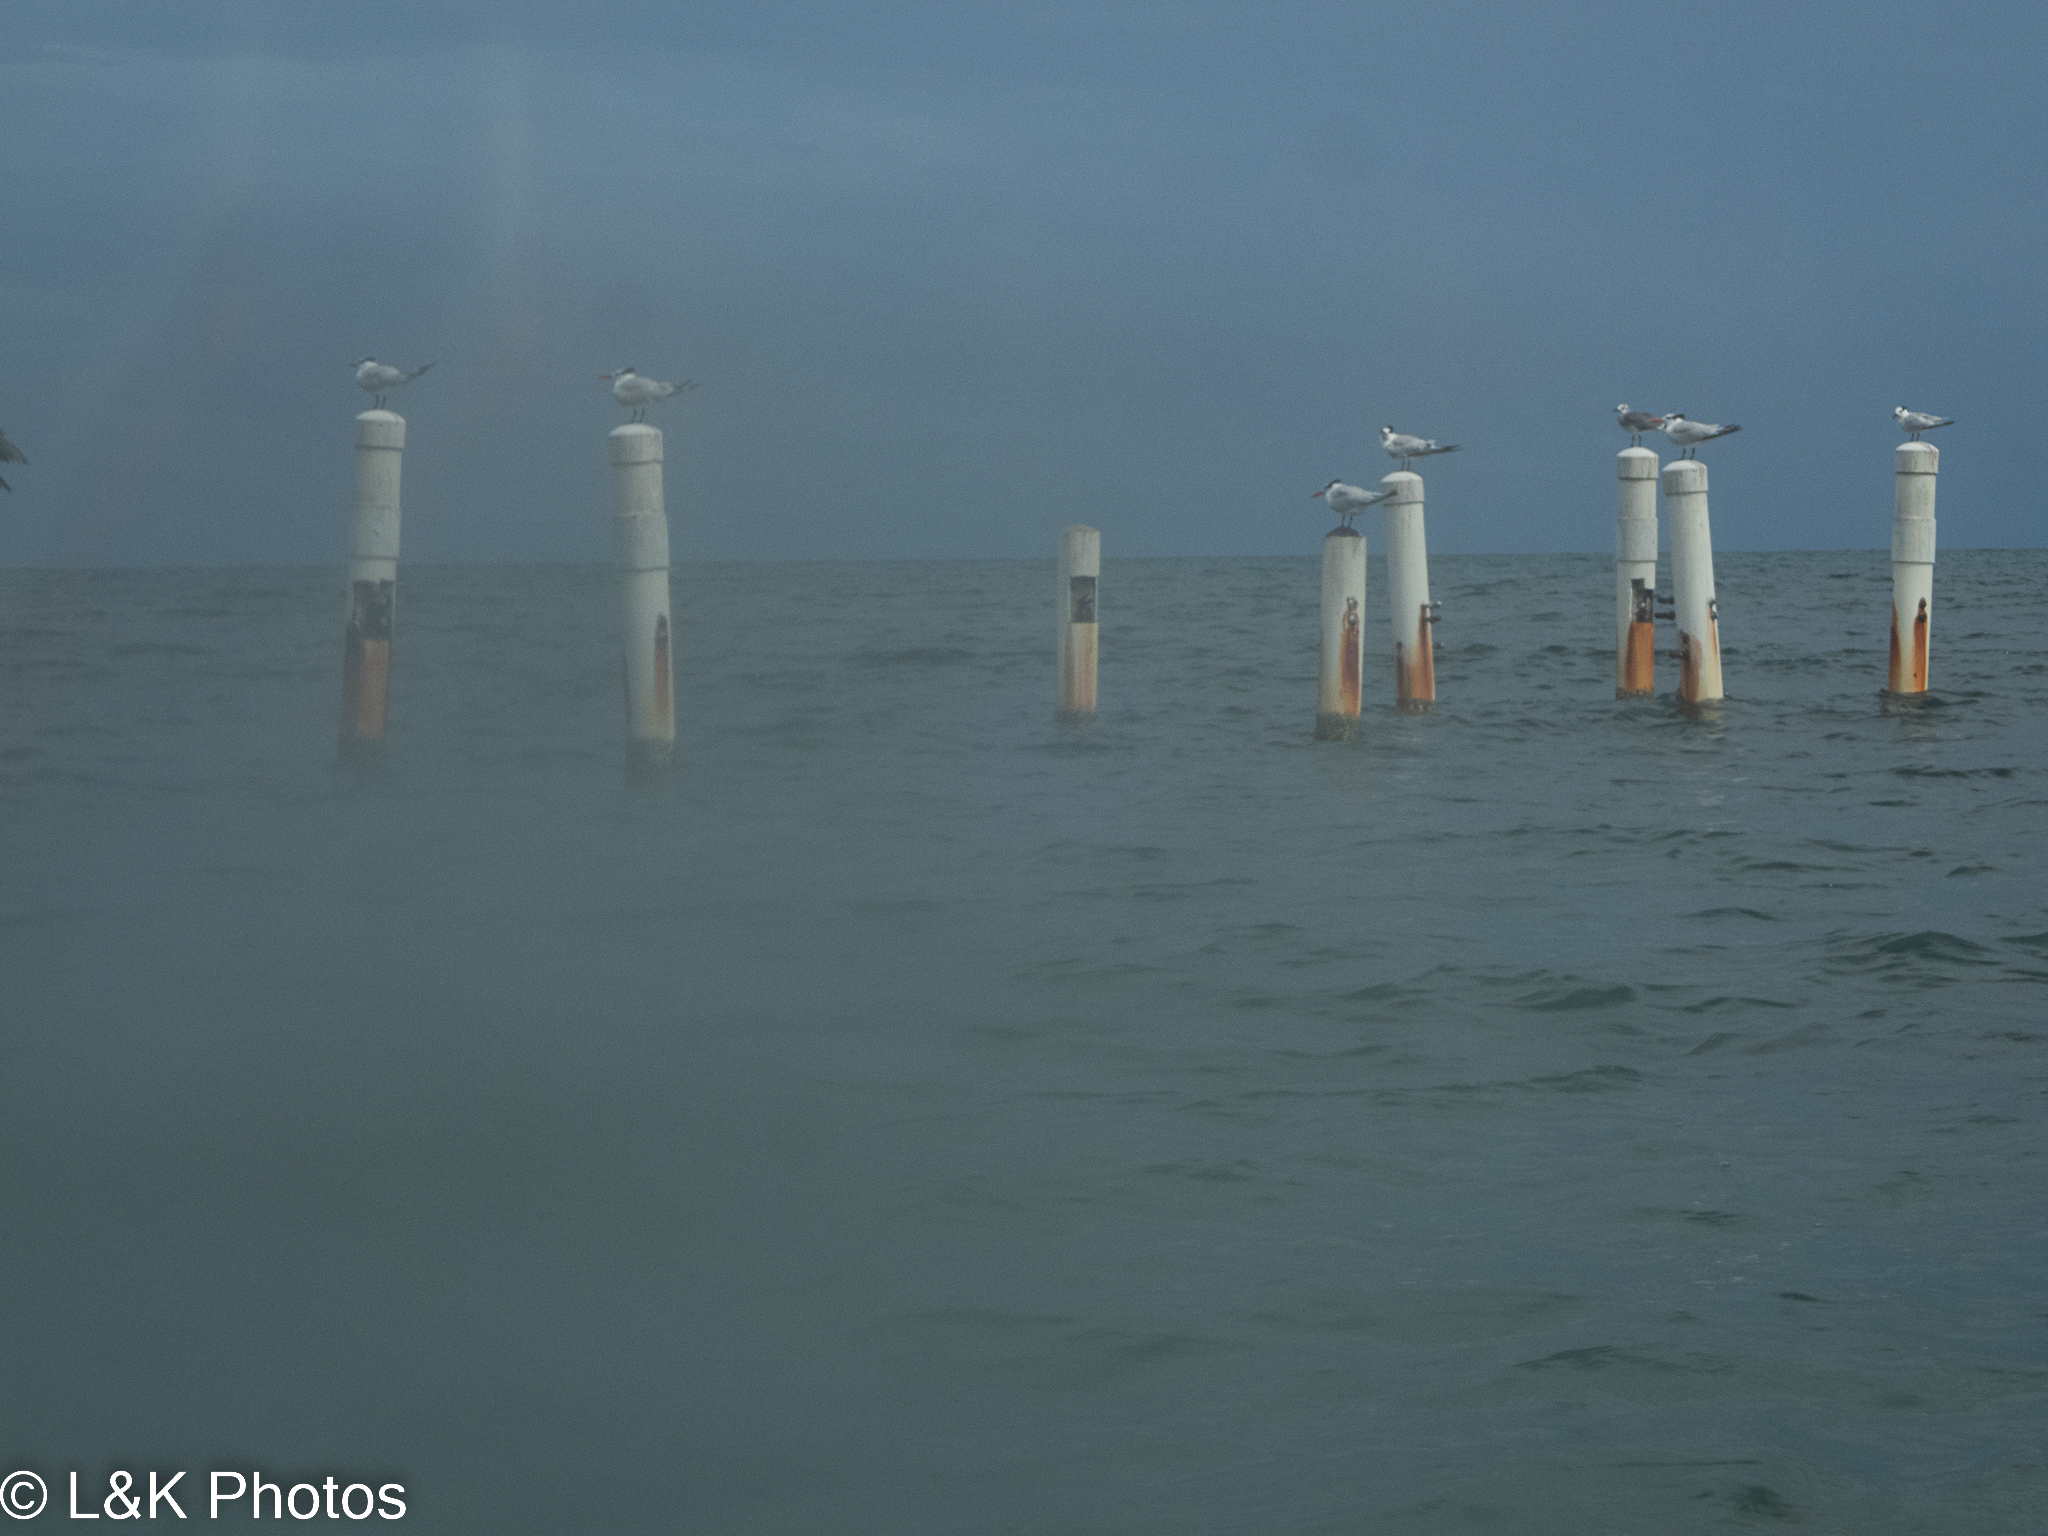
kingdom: Animalia
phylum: Chordata
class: Aves
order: Charadriiformes
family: Laridae
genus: Thalasseus
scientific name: Thalasseus maximus
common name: Royal tern
